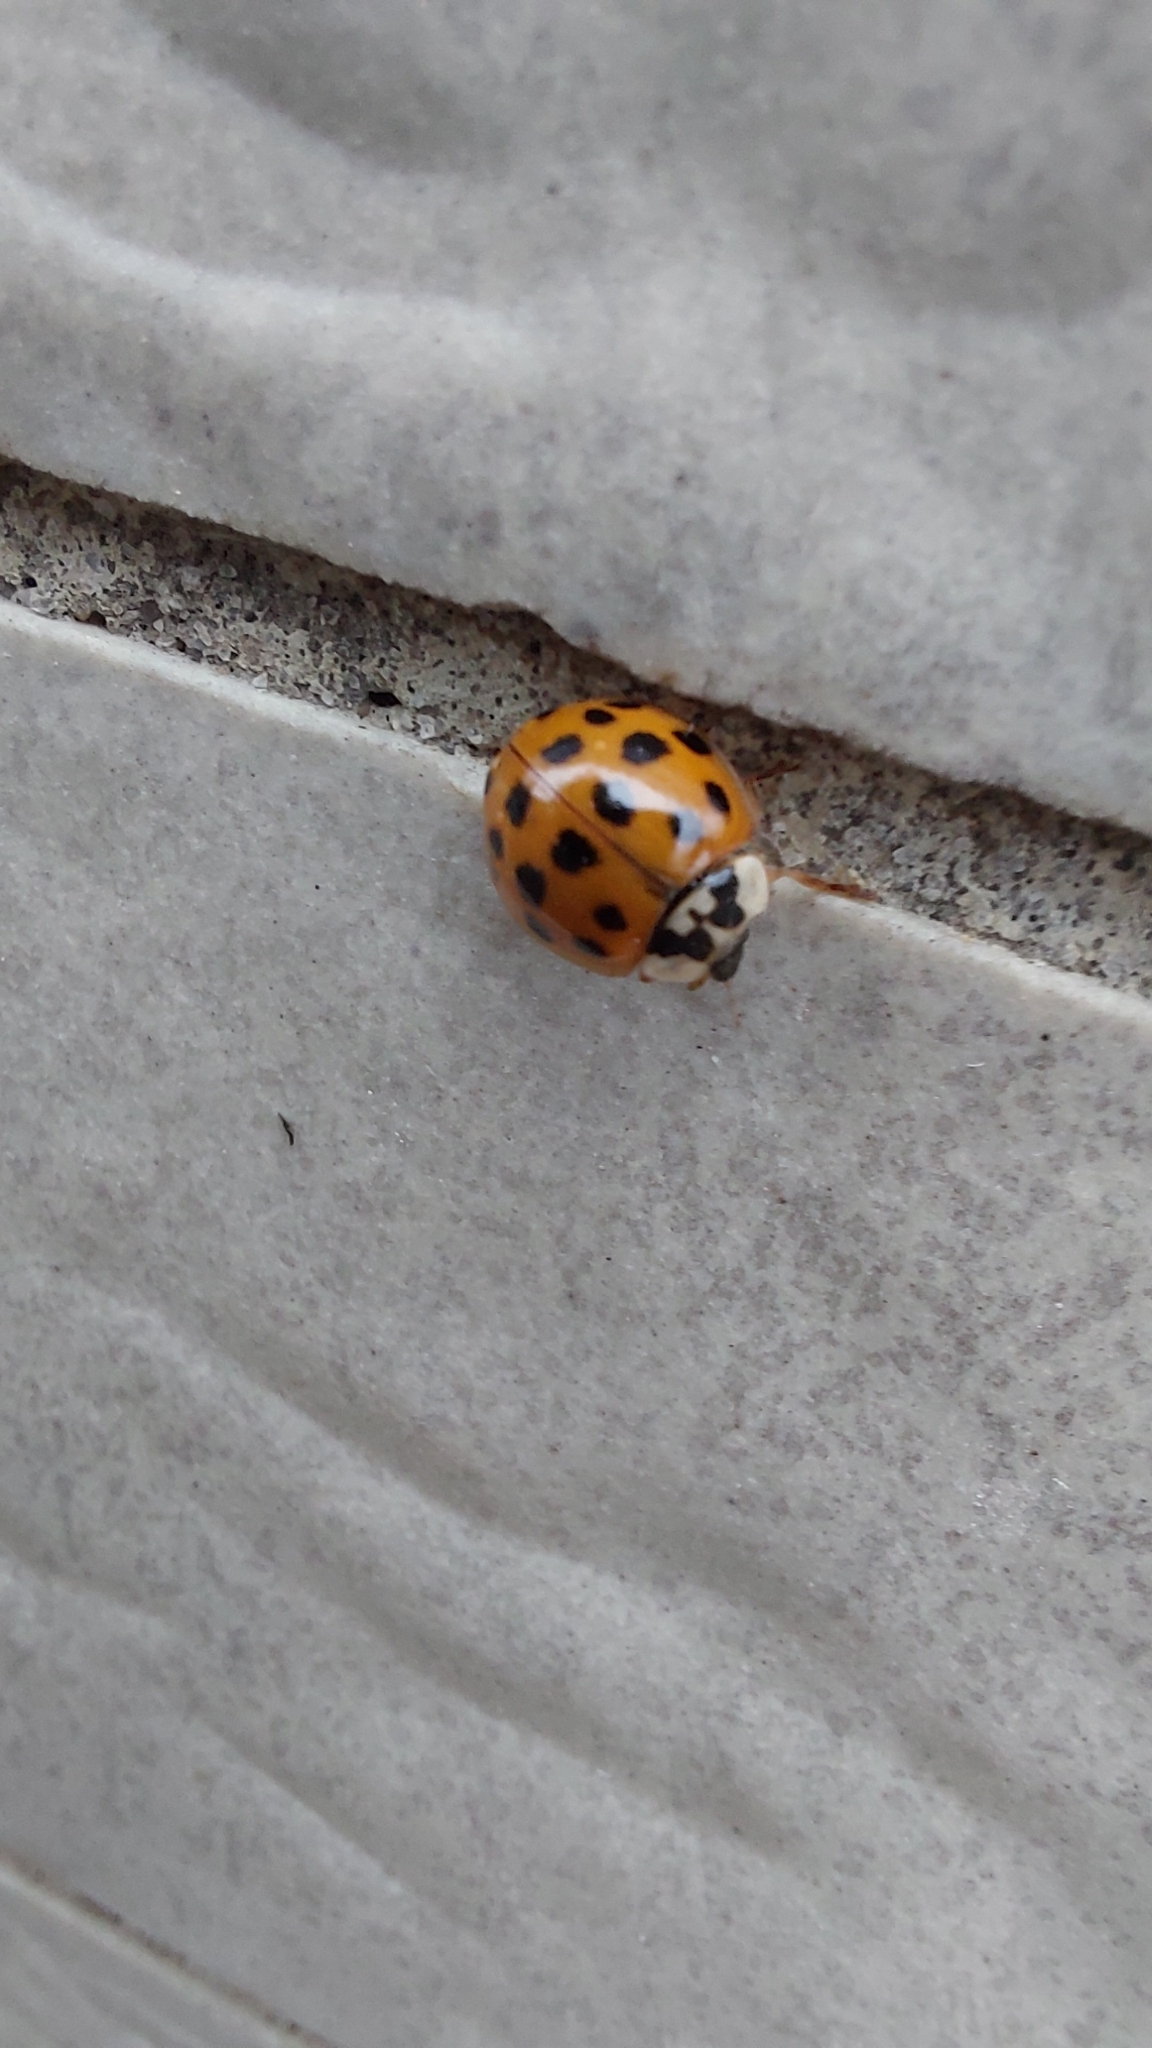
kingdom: Animalia
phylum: Arthropoda
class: Insecta
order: Coleoptera
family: Coccinellidae
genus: Harmonia
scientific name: Harmonia axyridis
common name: Harlequin ladybird
